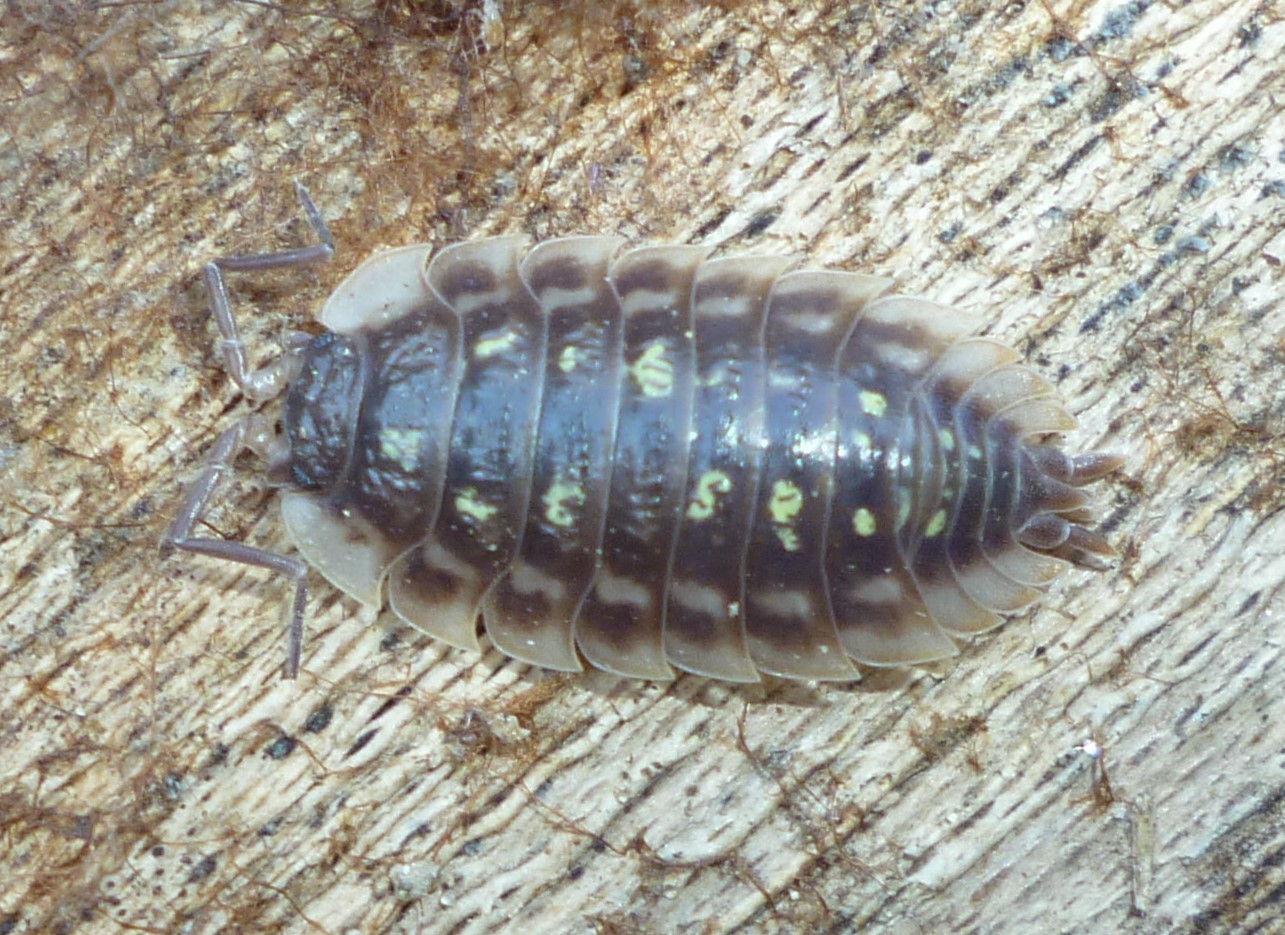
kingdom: Animalia
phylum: Arthropoda
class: Malacostraca
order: Isopoda
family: Oniscidae
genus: Oniscus
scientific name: Oniscus asellus
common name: Common shiny woodlouse
